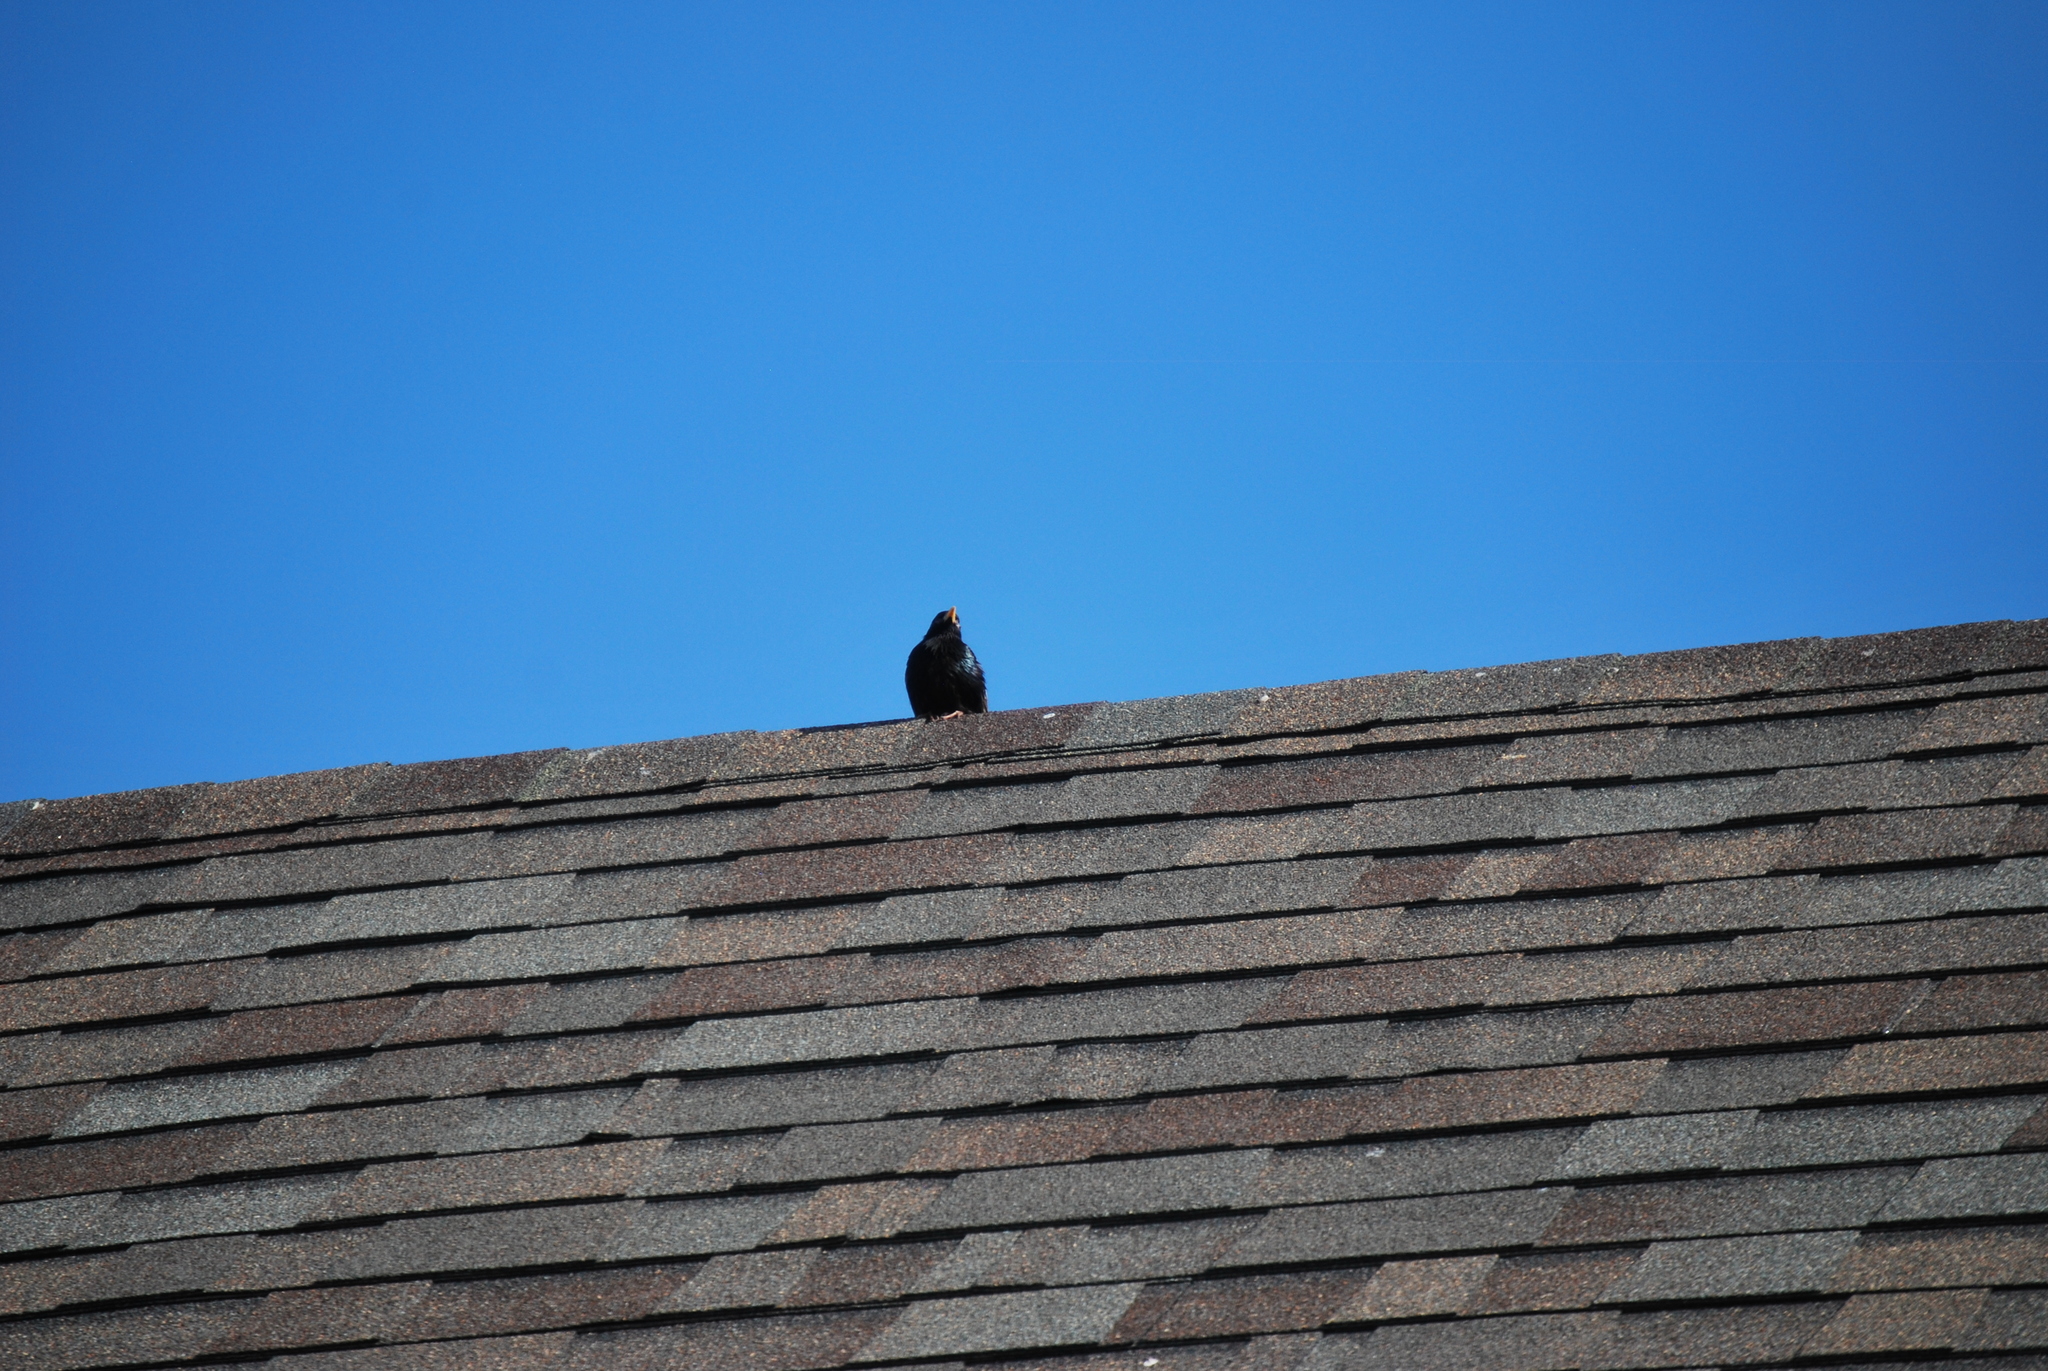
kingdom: Animalia
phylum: Chordata
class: Aves
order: Passeriformes
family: Sturnidae
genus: Sturnus
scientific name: Sturnus vulgaris
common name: Common starling
